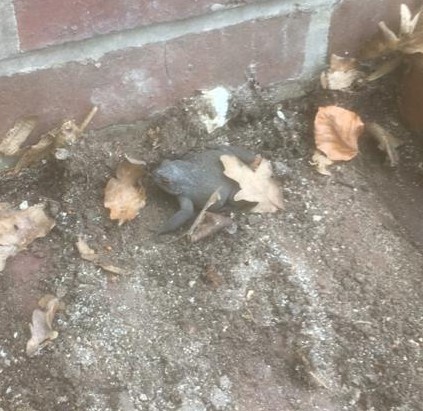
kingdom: Animalia
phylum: Chordata
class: Amphibia
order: Anura
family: Bufonidae
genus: Bufo
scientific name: Bufo bufo
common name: Common toad
